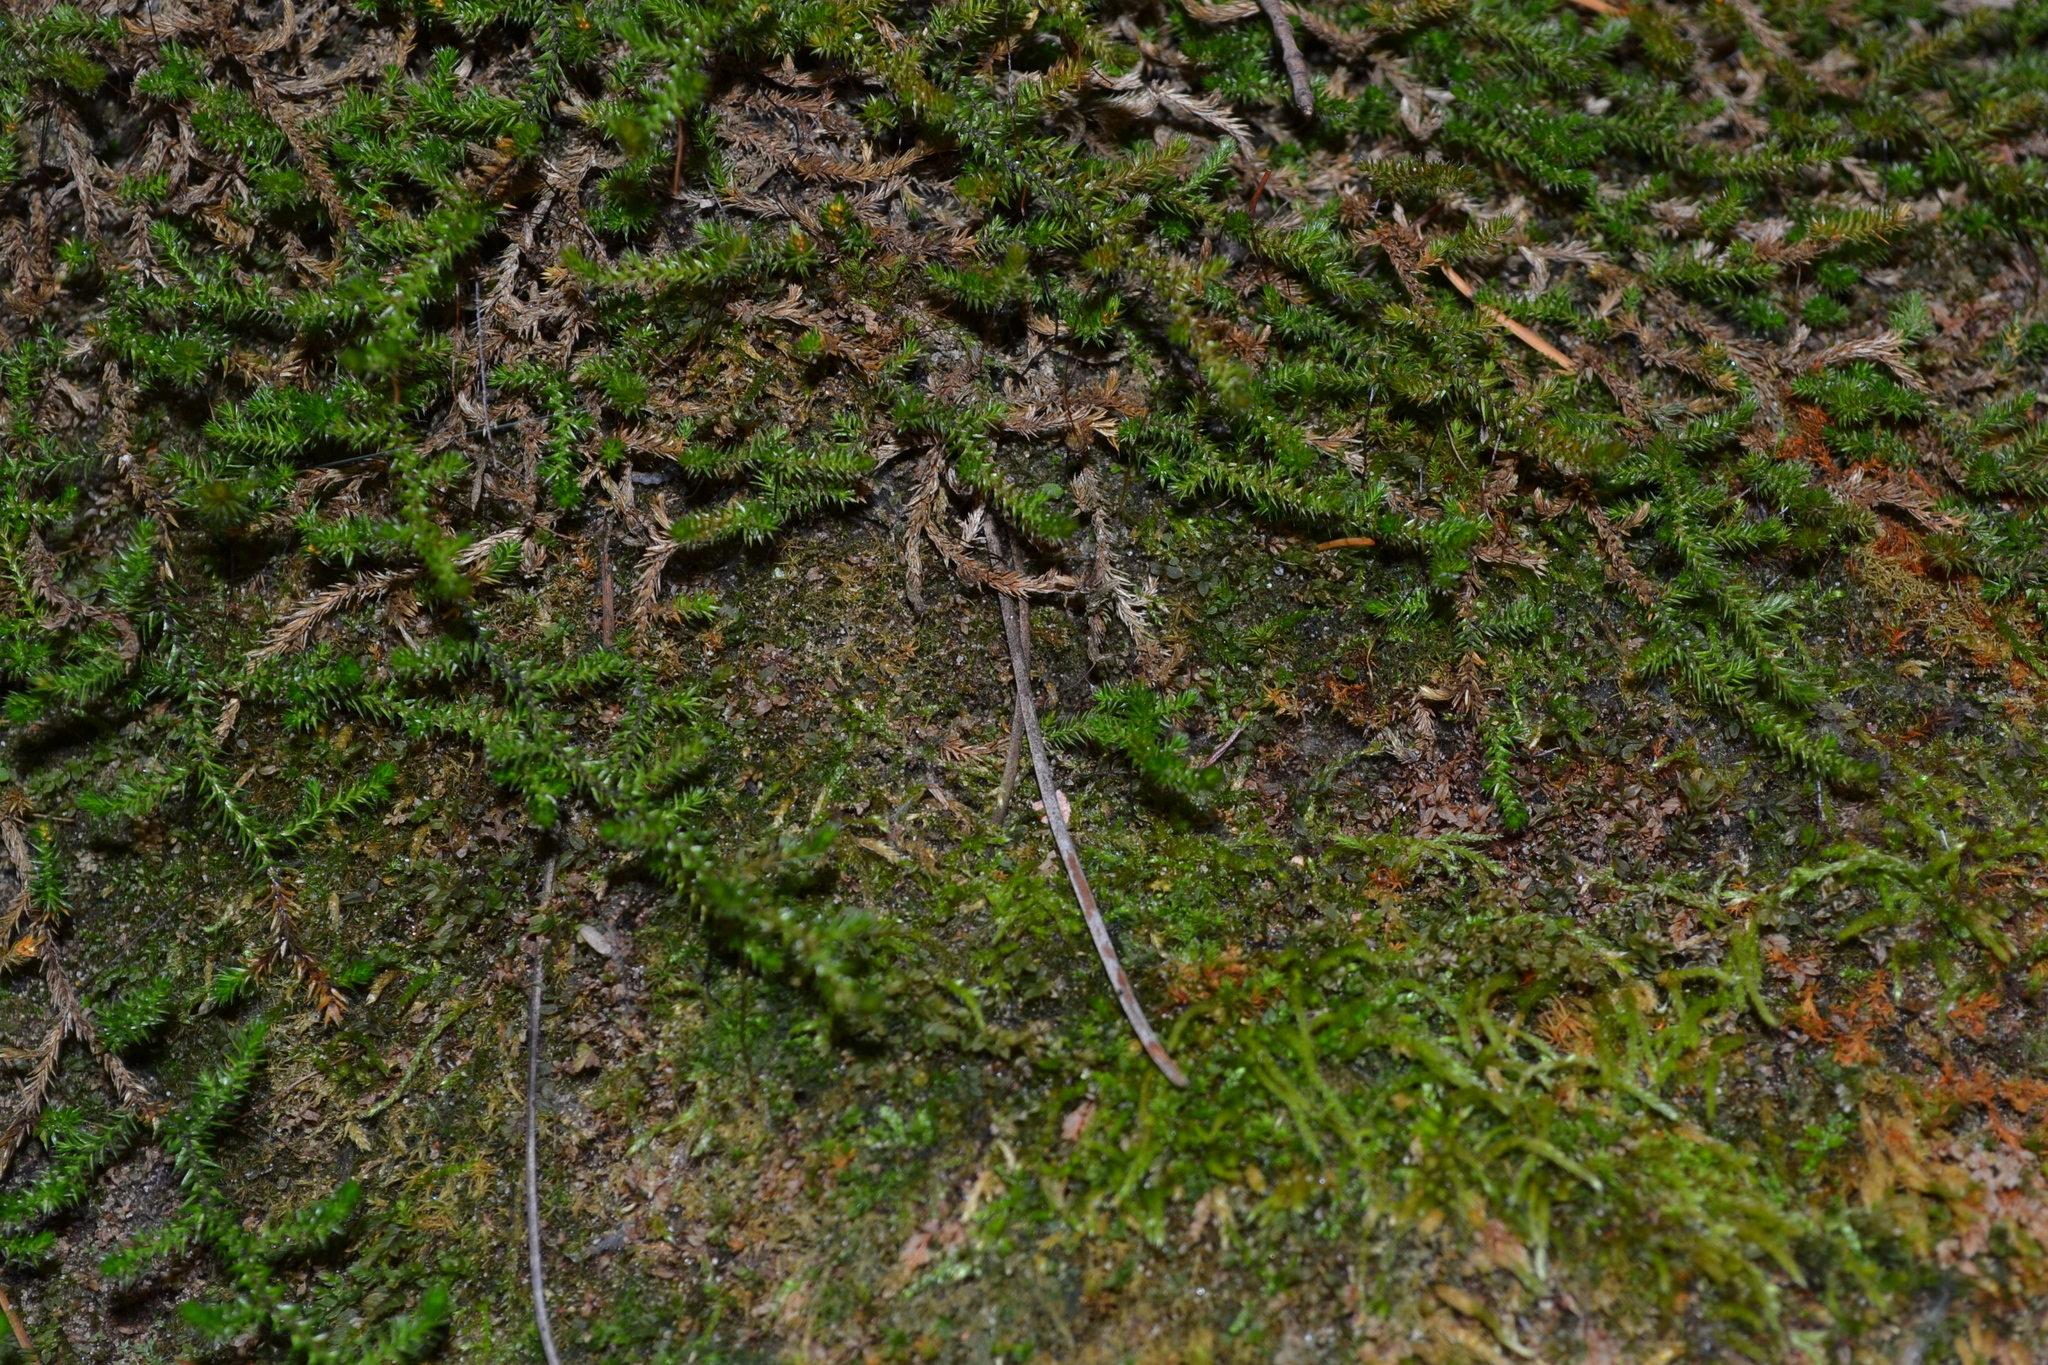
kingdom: Plantae
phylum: Tracheophyta
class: Lycopodiopsida
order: Selaginellales
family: Selaginellaceae
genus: Selaginella
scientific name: Selaginella underwoodii
